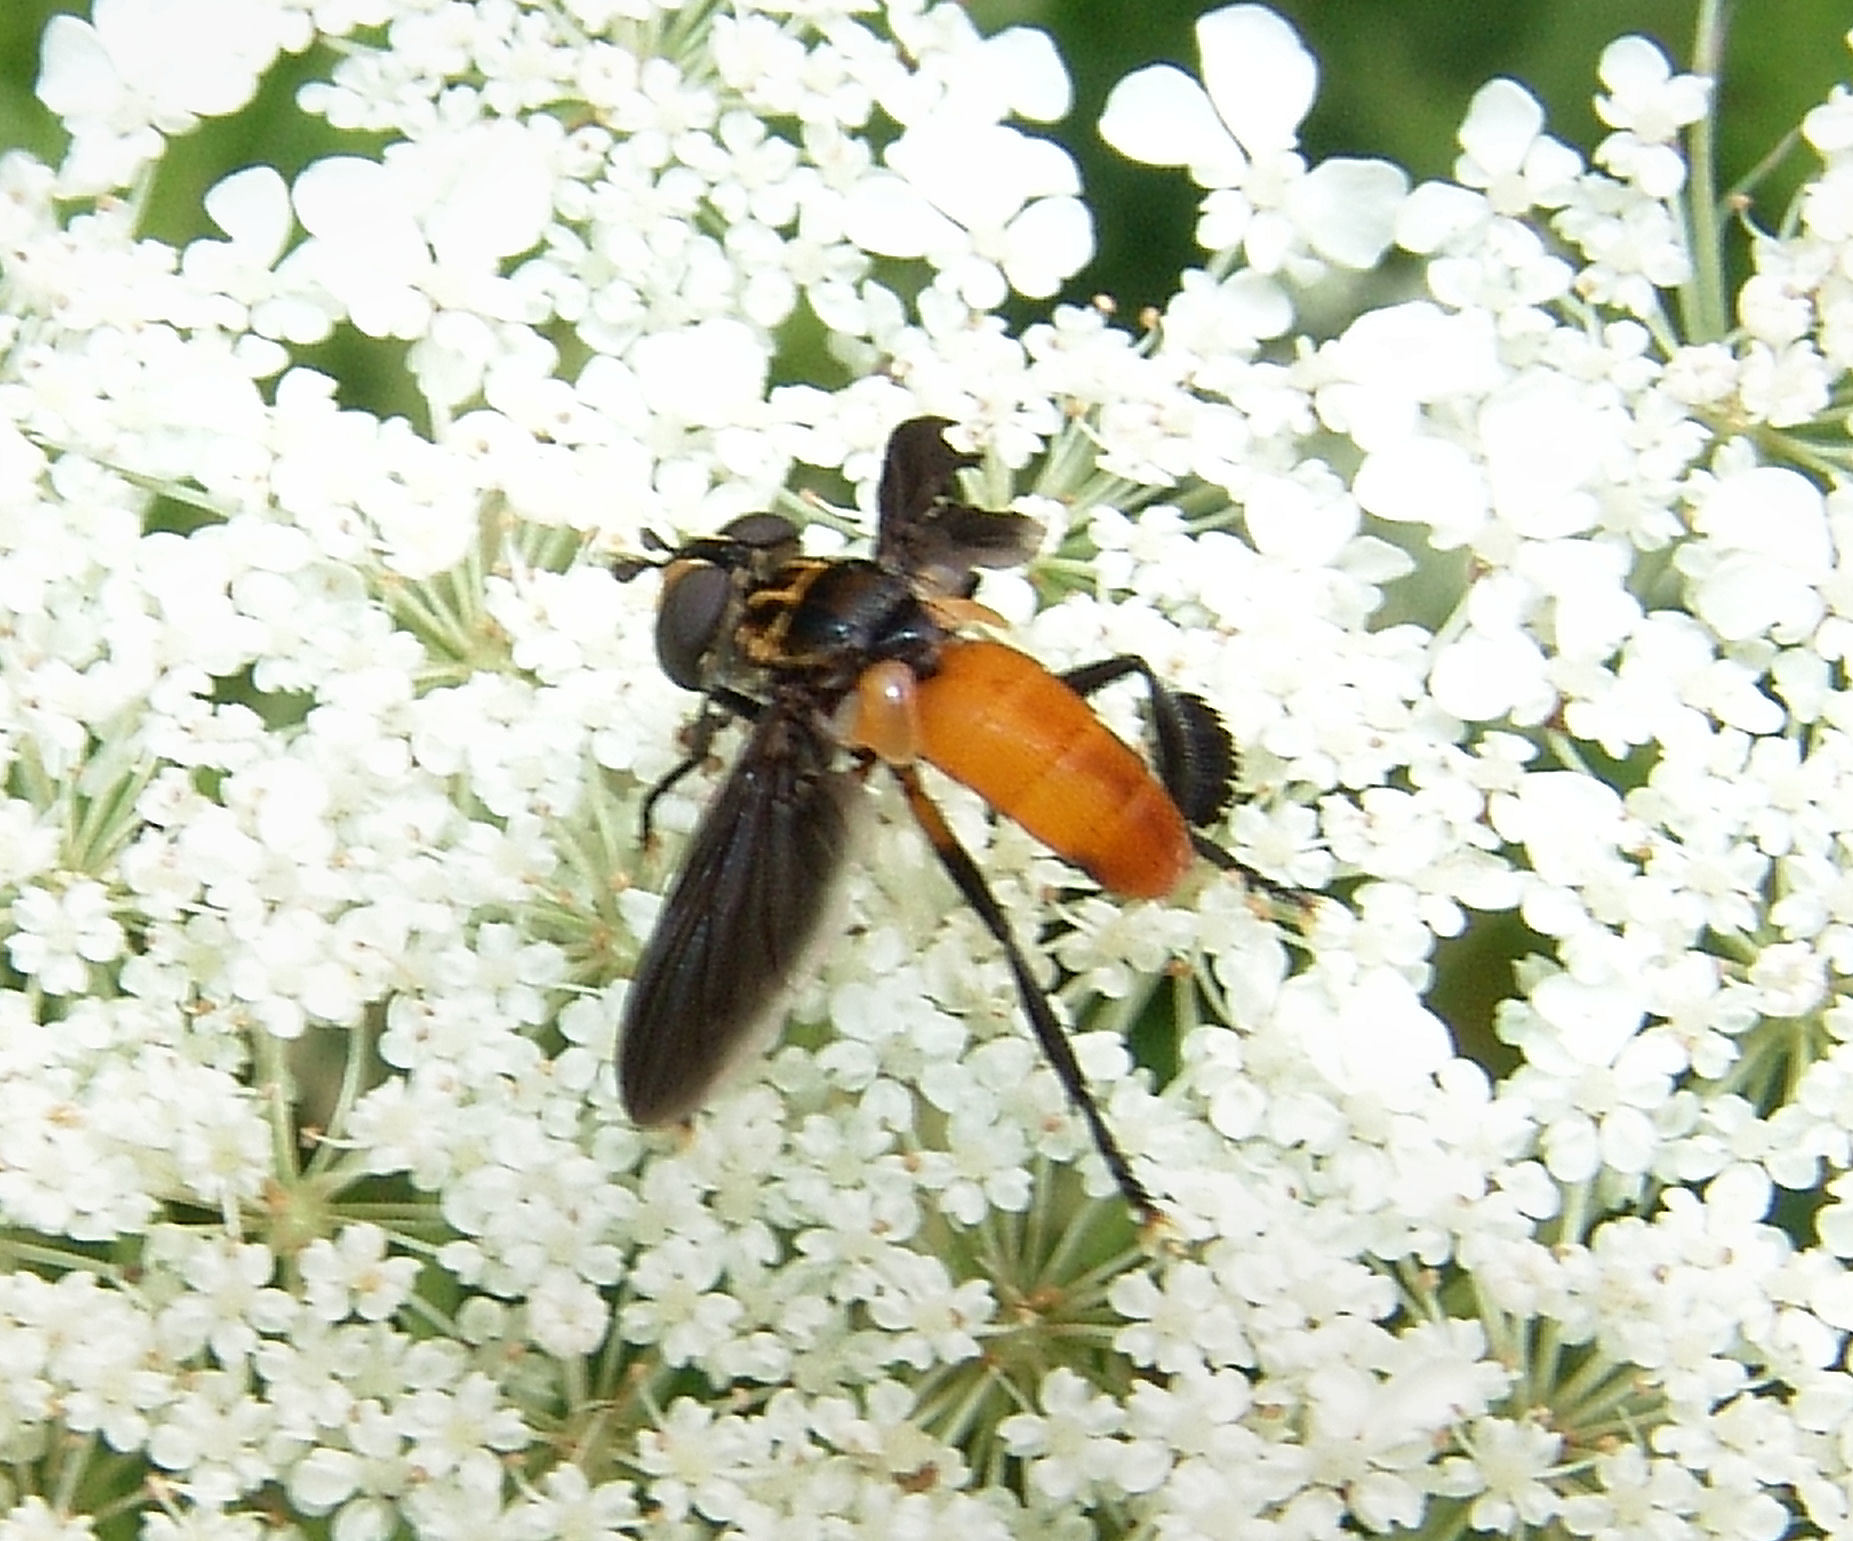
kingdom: Animalia
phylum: Arthropoda
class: Insecta
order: Diptera
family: Tachinidae
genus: Trichopoda
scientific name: Trichopoda pennipes
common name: Tachinid fly
